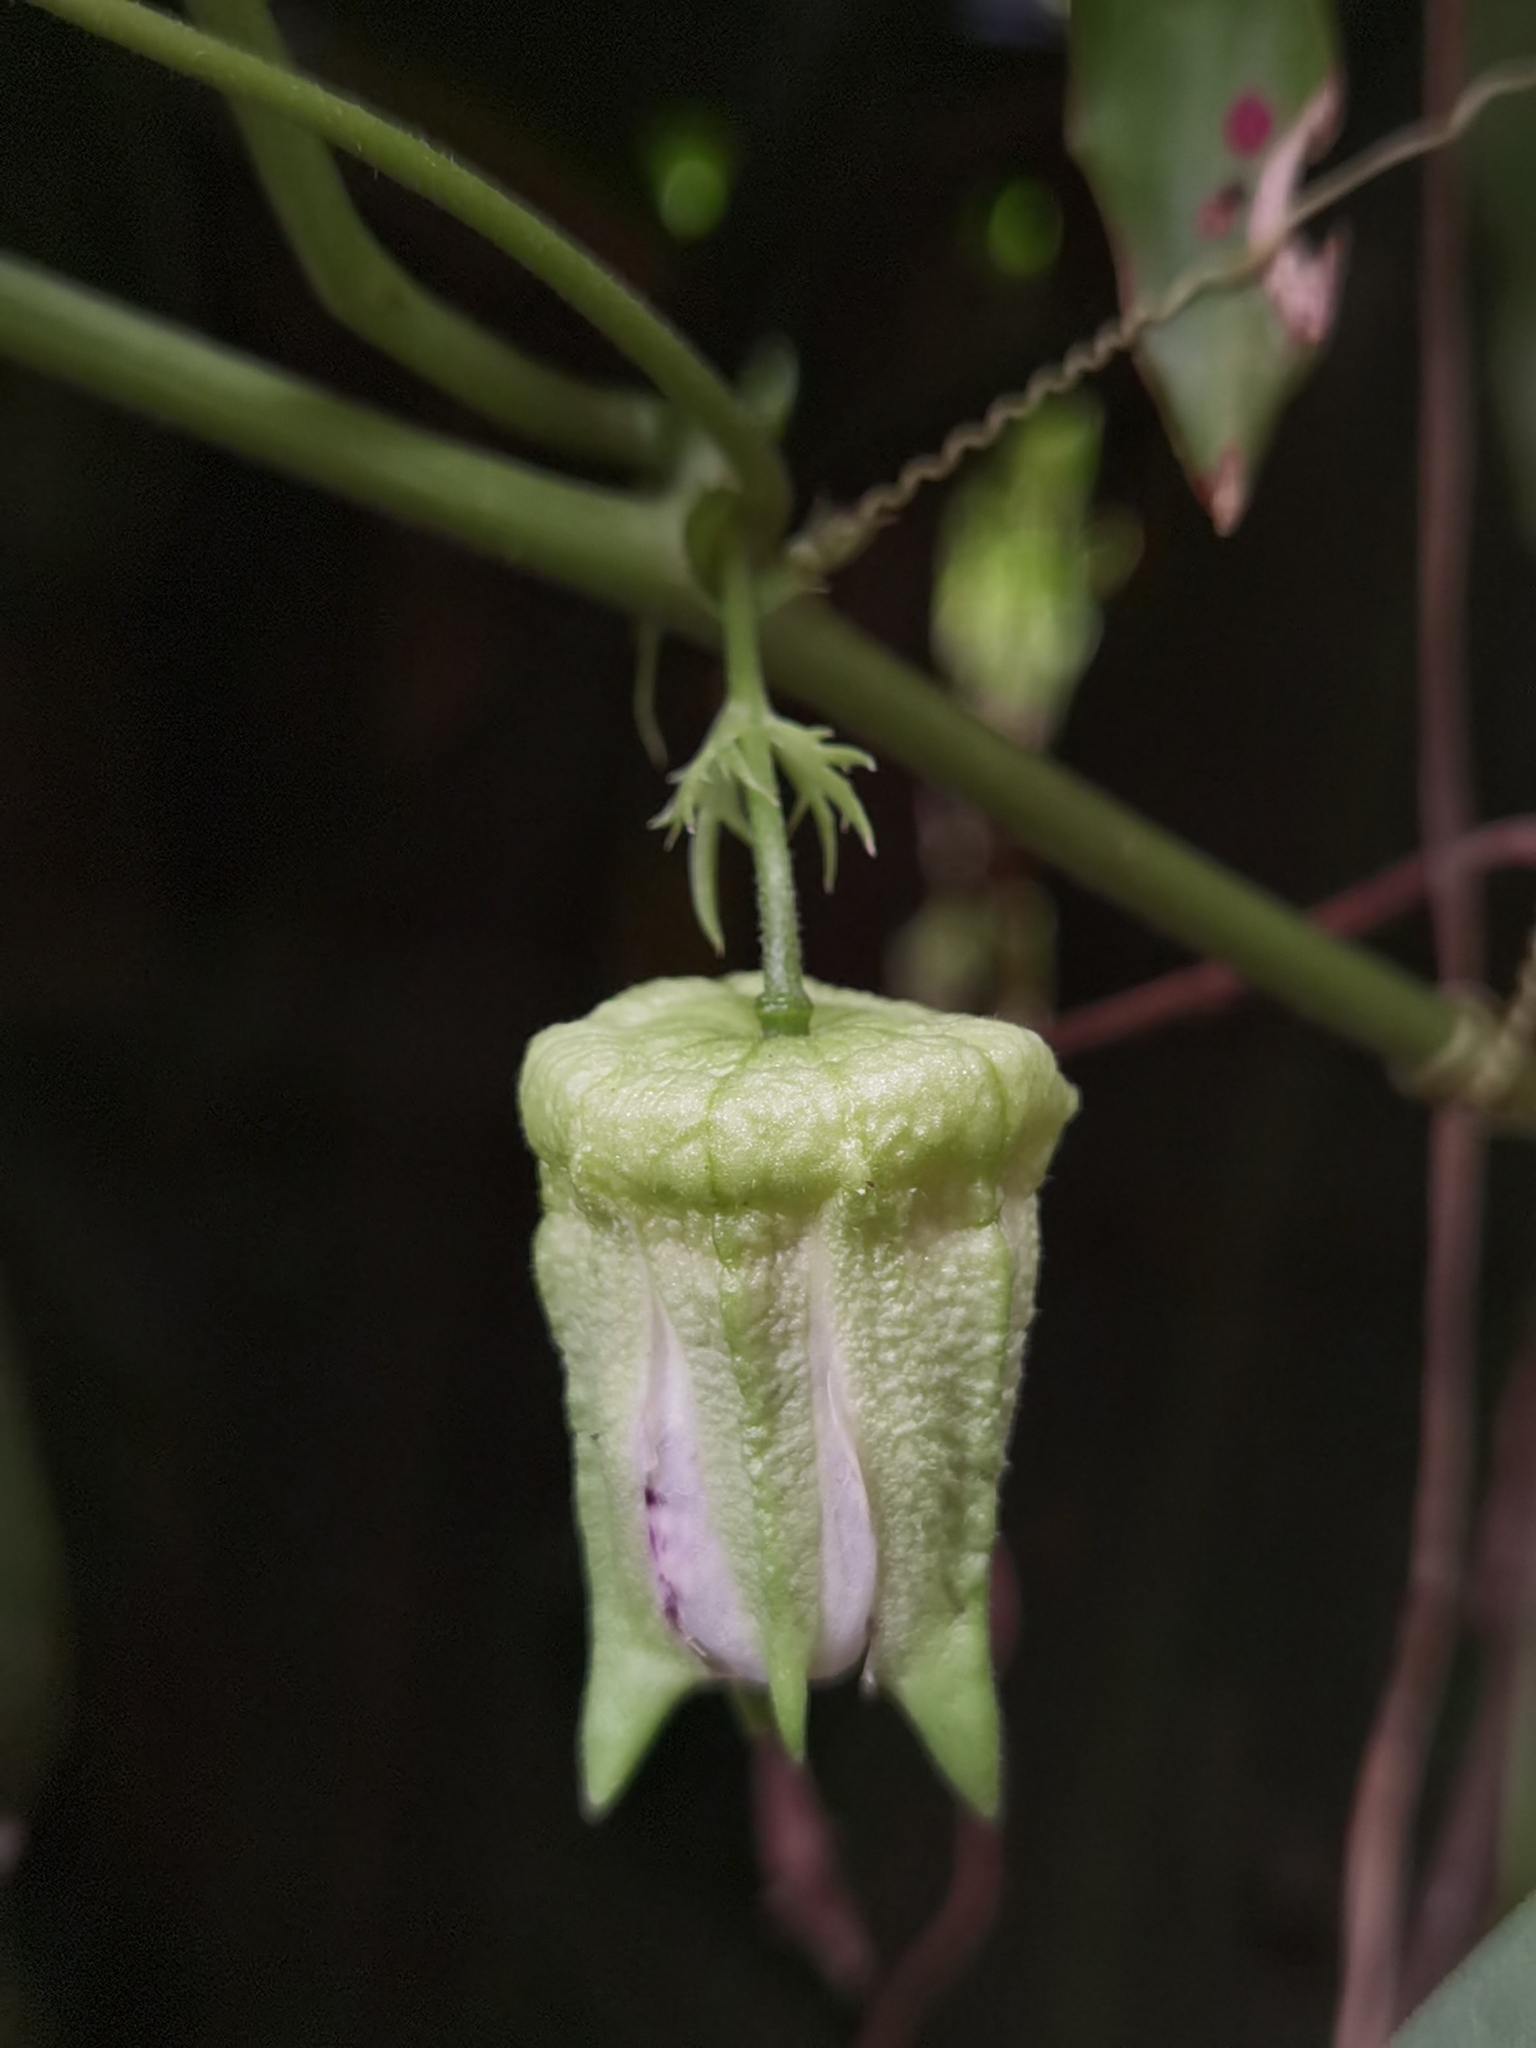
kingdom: Plantae
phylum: Tracheophyta
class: Magnoliopsida
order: Malpighiales
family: Passifloraceae
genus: Passiflora
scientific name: Passiflora adenopoda
